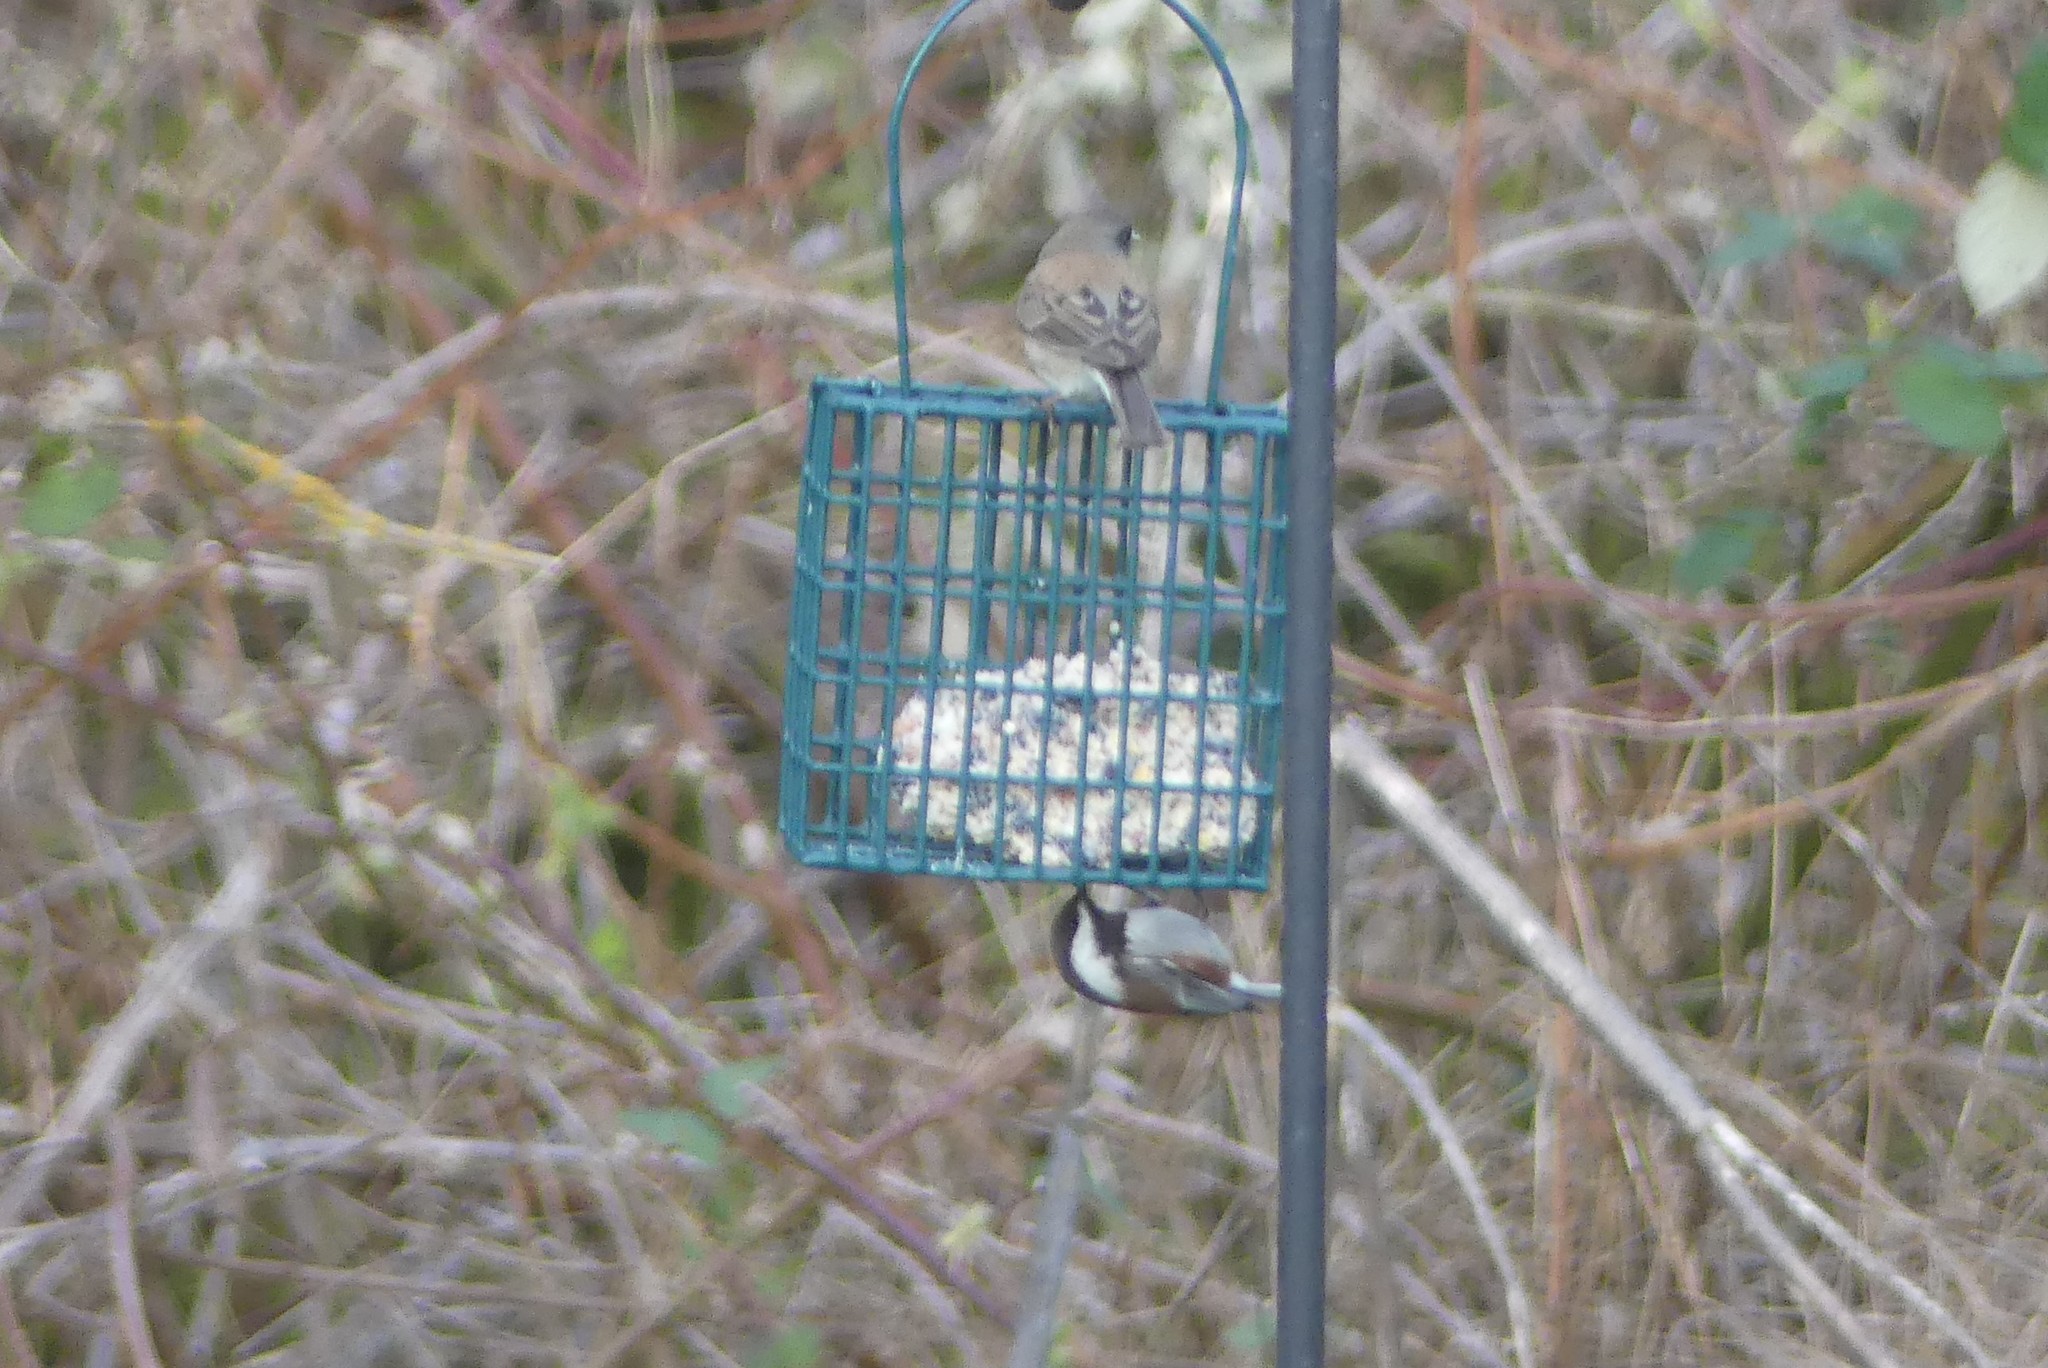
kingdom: Animalia
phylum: Chordata
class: Aves
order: Passeriformes
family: Paridae
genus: Poecile
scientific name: Poecile rufescens
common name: Chestnut-backed chickadee
